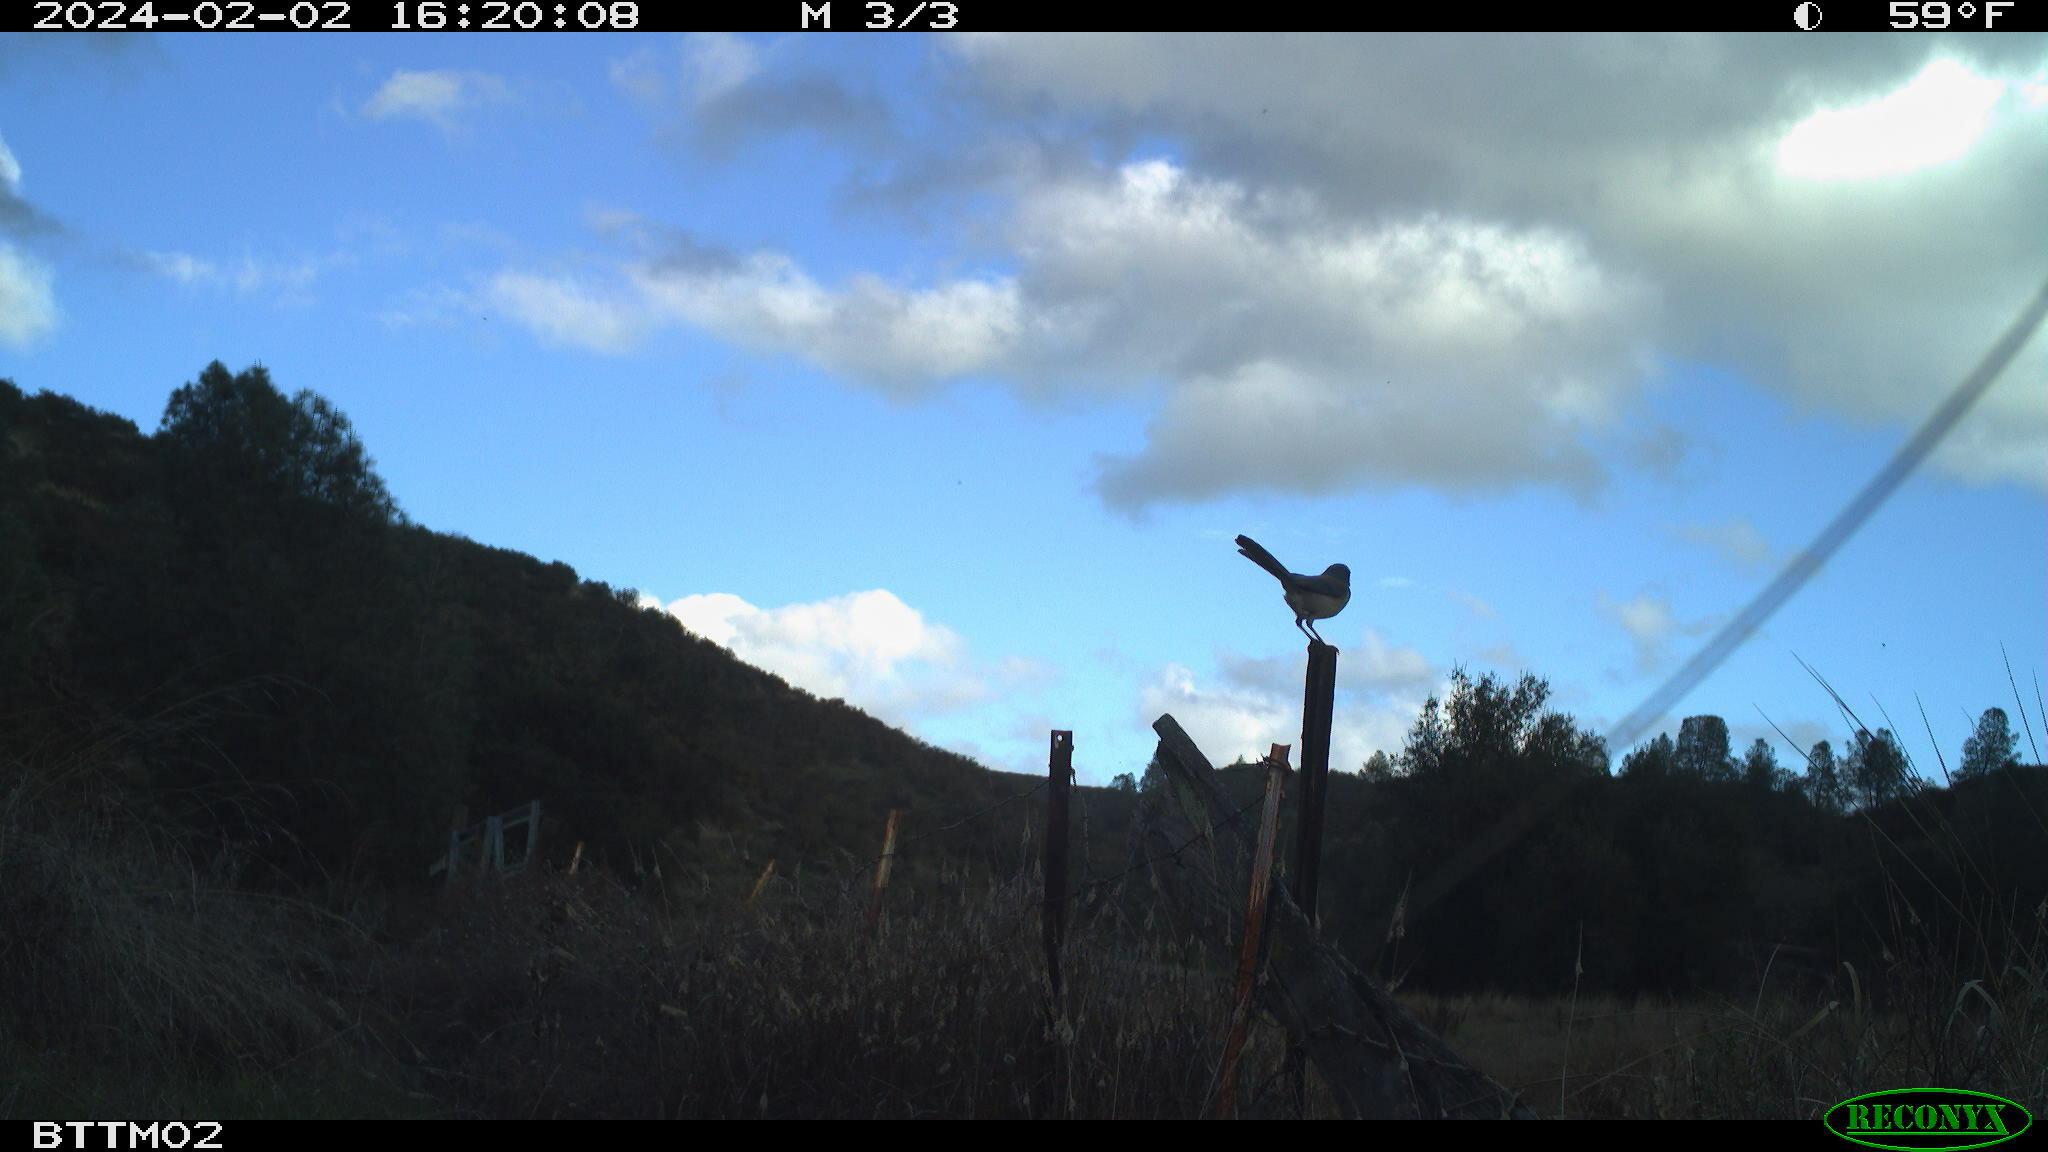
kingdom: Animalia
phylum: Chordata
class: Aves
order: Passeriformes
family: Corvidae
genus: Aphelocoma
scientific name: Aphelocoma californica
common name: California scrub-jay
